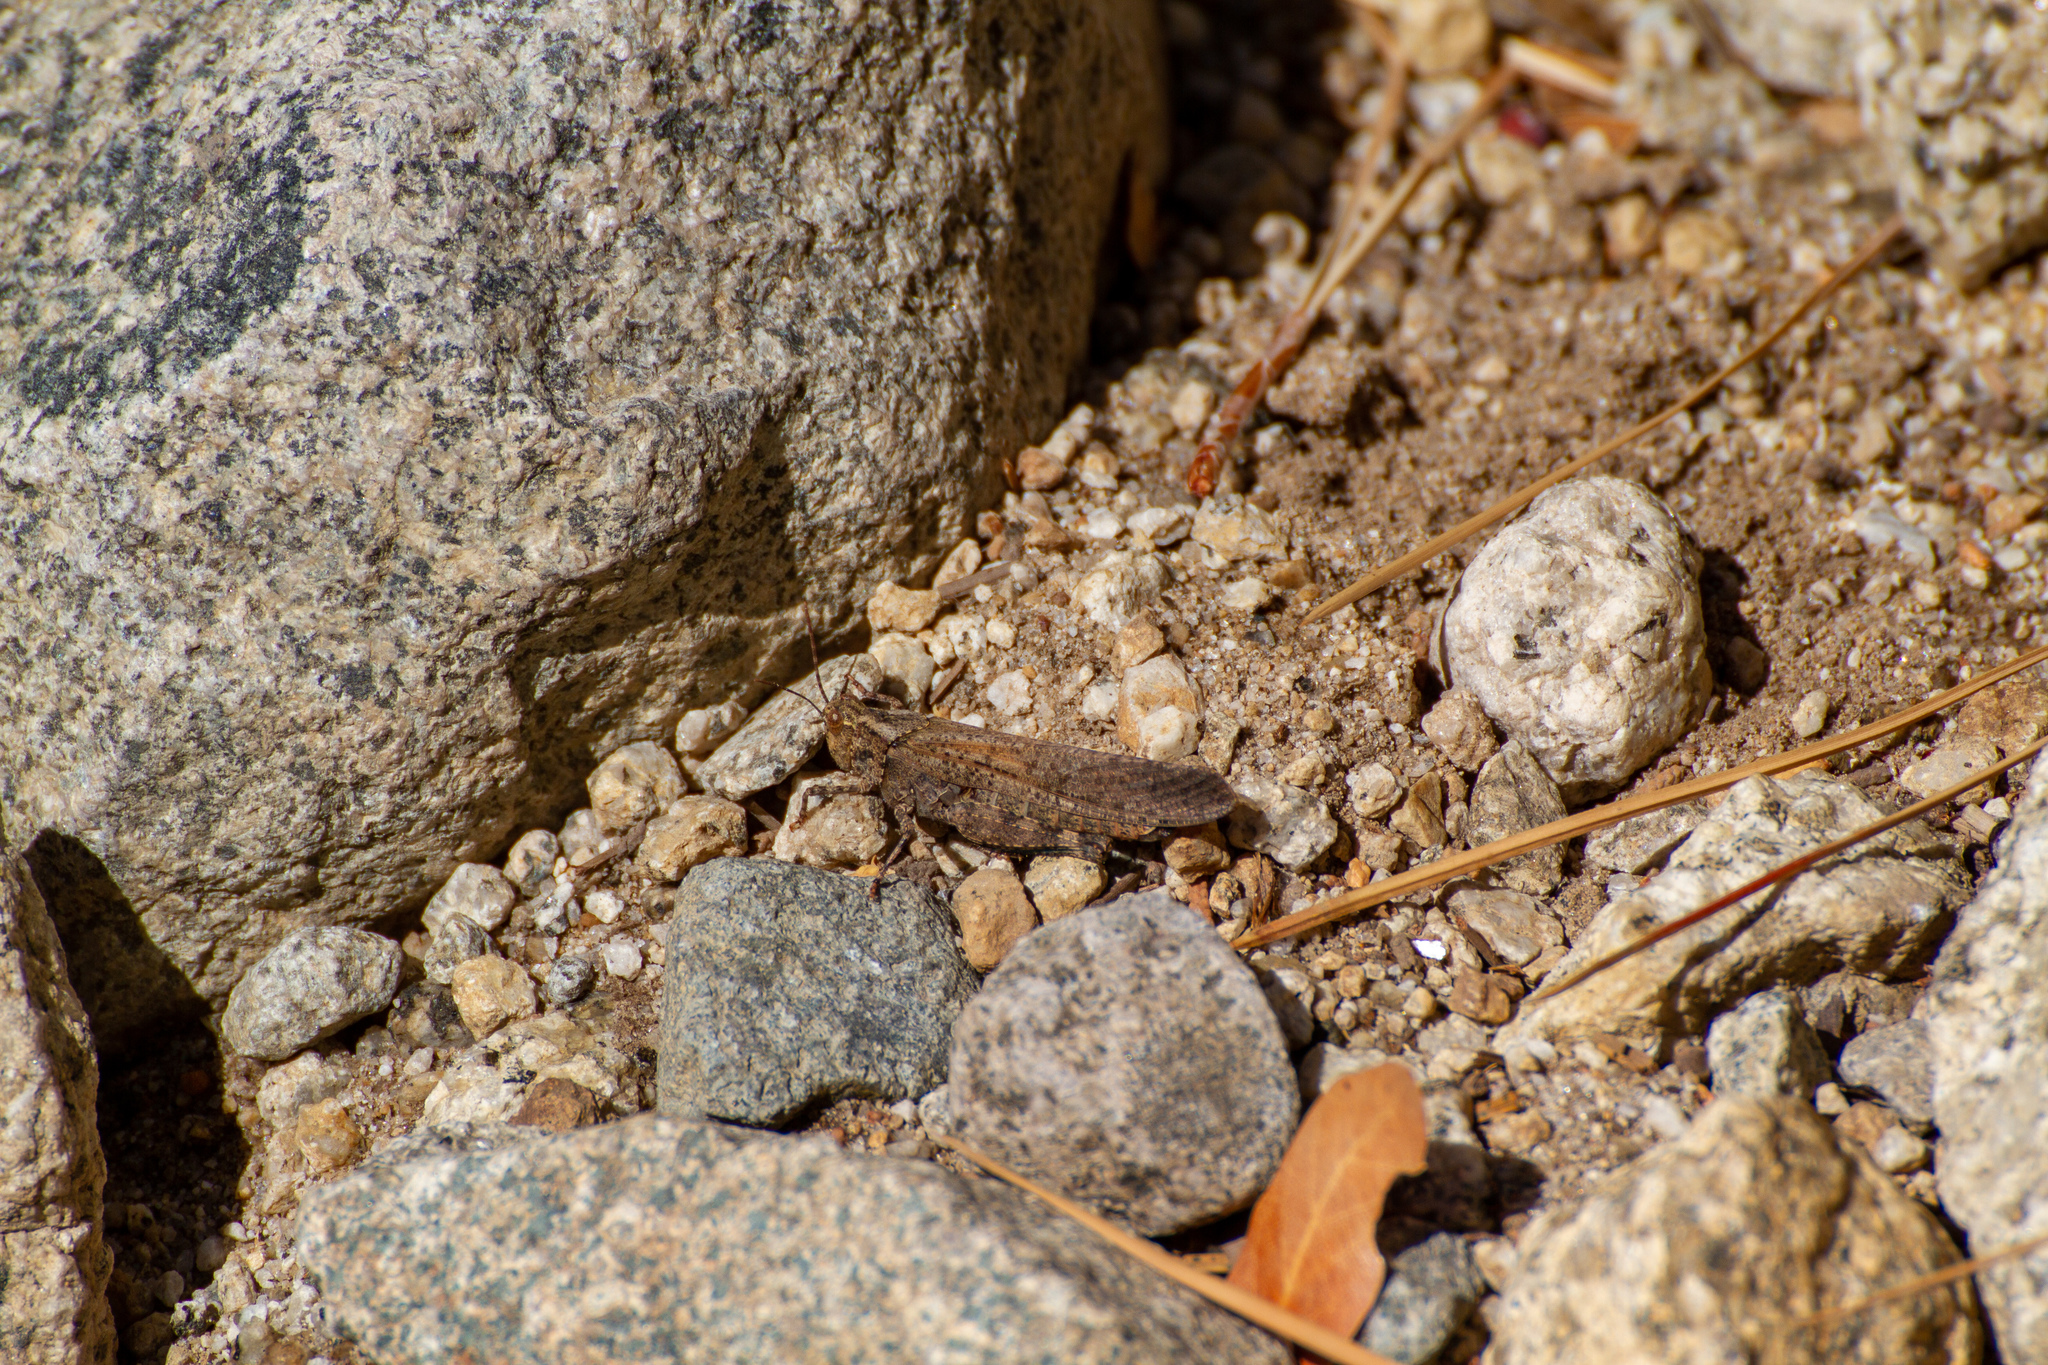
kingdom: Animalia
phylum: Arthropoda
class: Insecta
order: Orthoptera
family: Acrididae
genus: Trimerotropis
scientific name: Trimerotropis verruculata
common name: Crackling forest grasshopper
